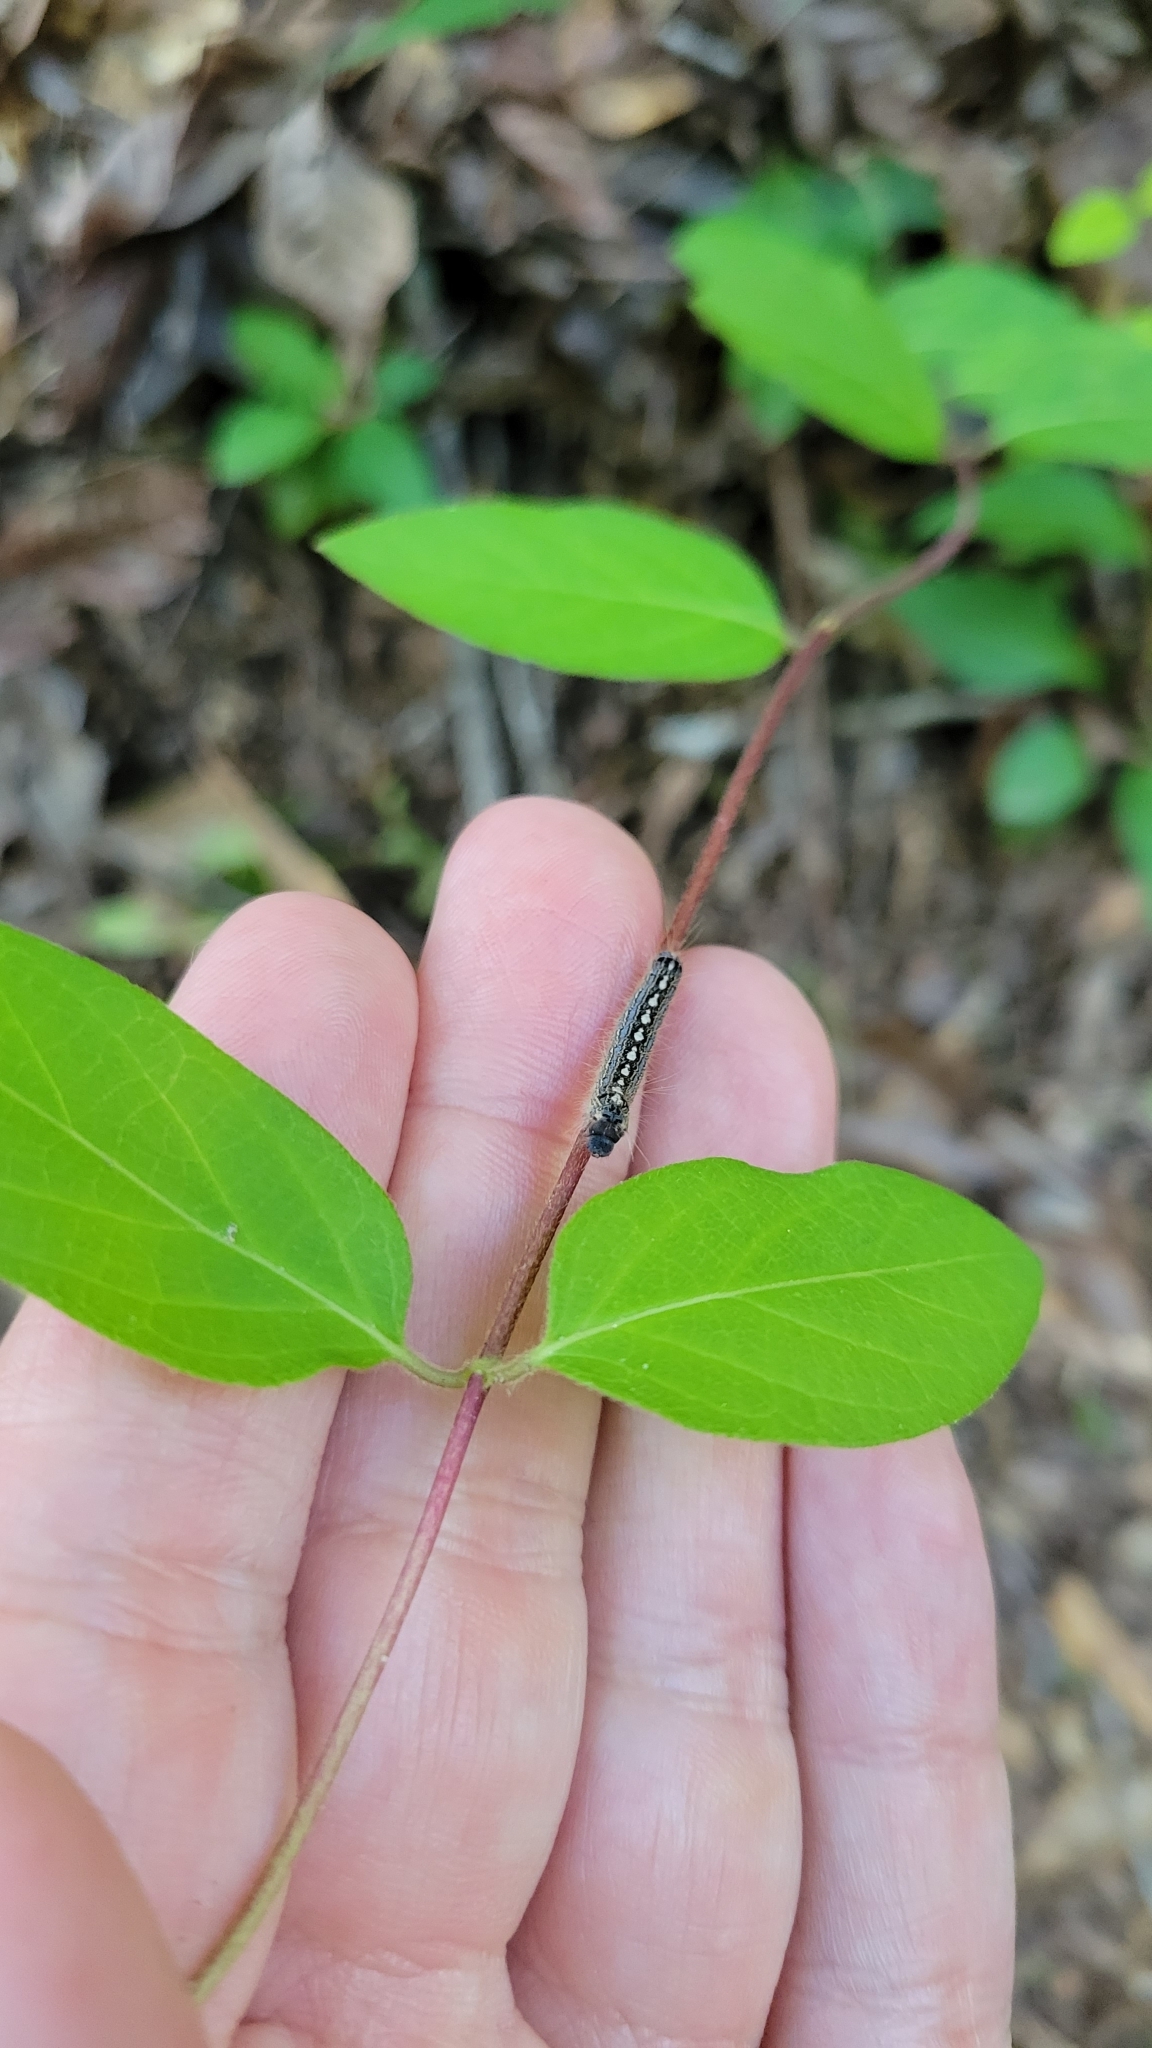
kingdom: Animalia
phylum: Arthropoda
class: Insecta
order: Lepidoptera
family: Lasiocampidae
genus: Malacosoma
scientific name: Malacosoma disstria
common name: Forest tent caterpillar
